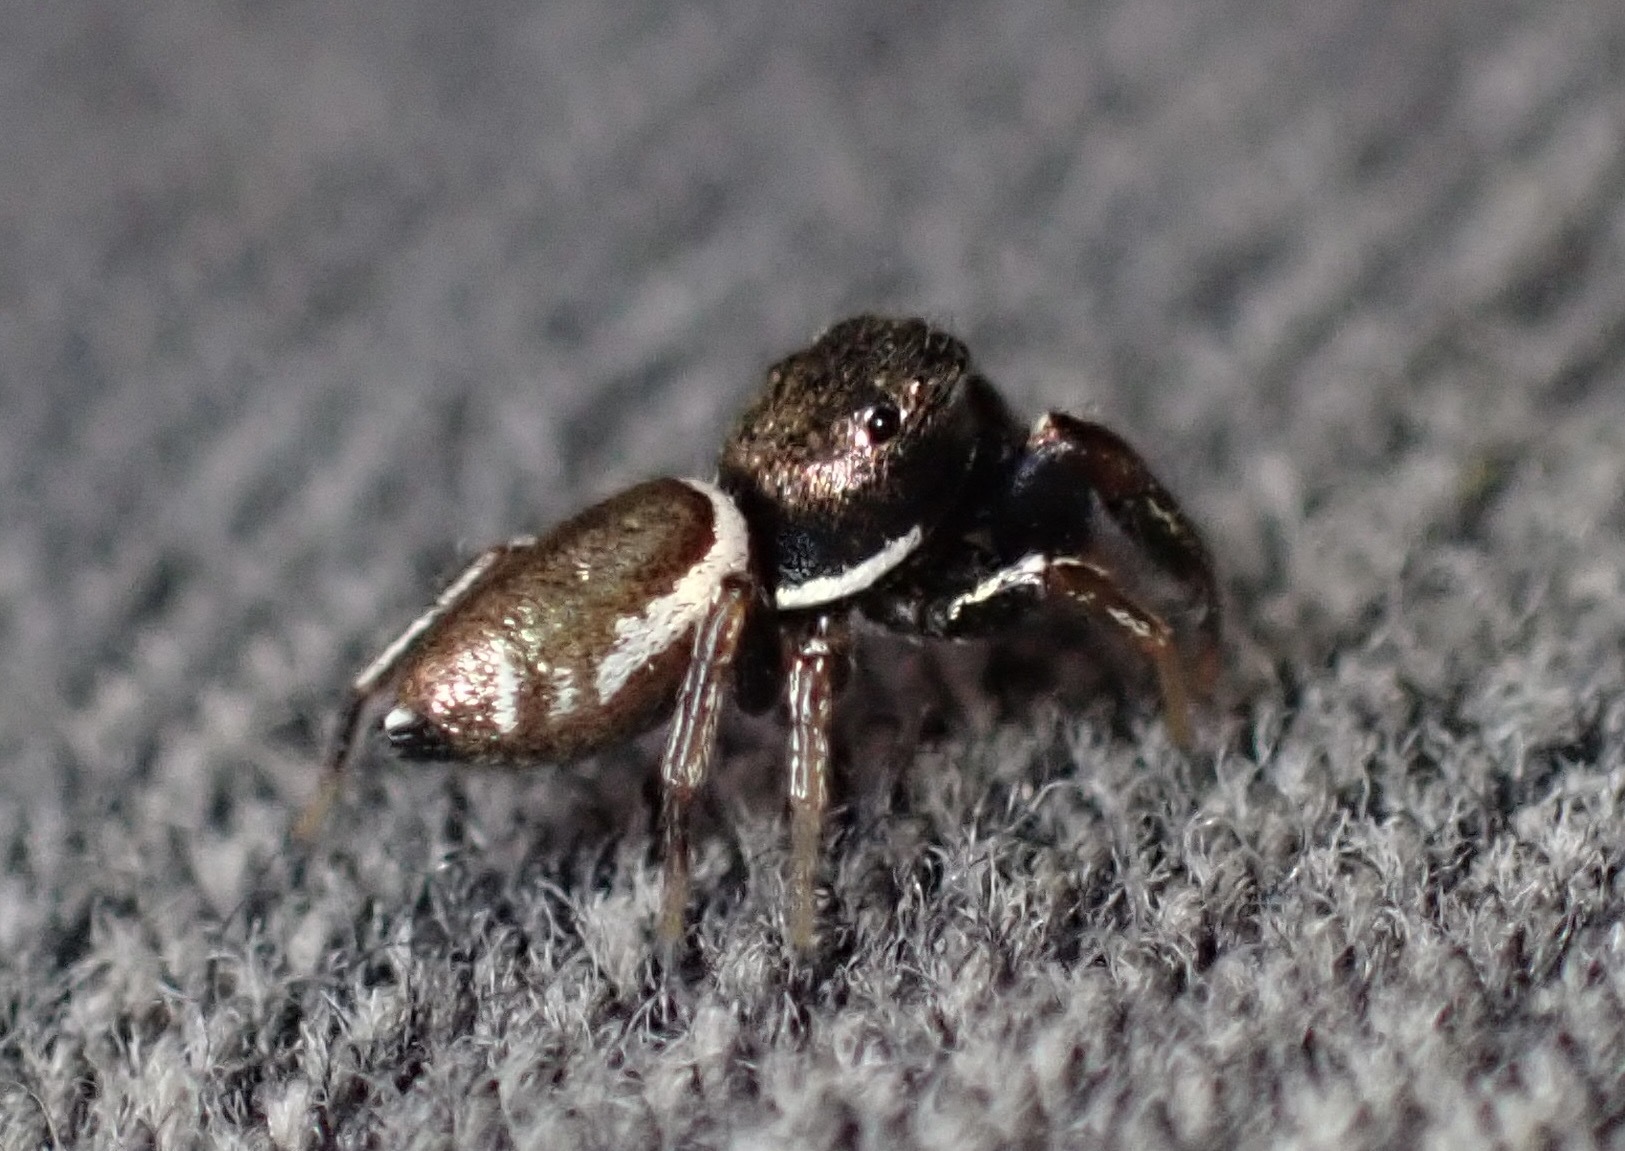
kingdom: Animalia
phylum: Arthropoda
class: Arachnida
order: Araneae
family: Salticidae
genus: Sassacus
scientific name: Sassacus vitis
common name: Jumping spiders
